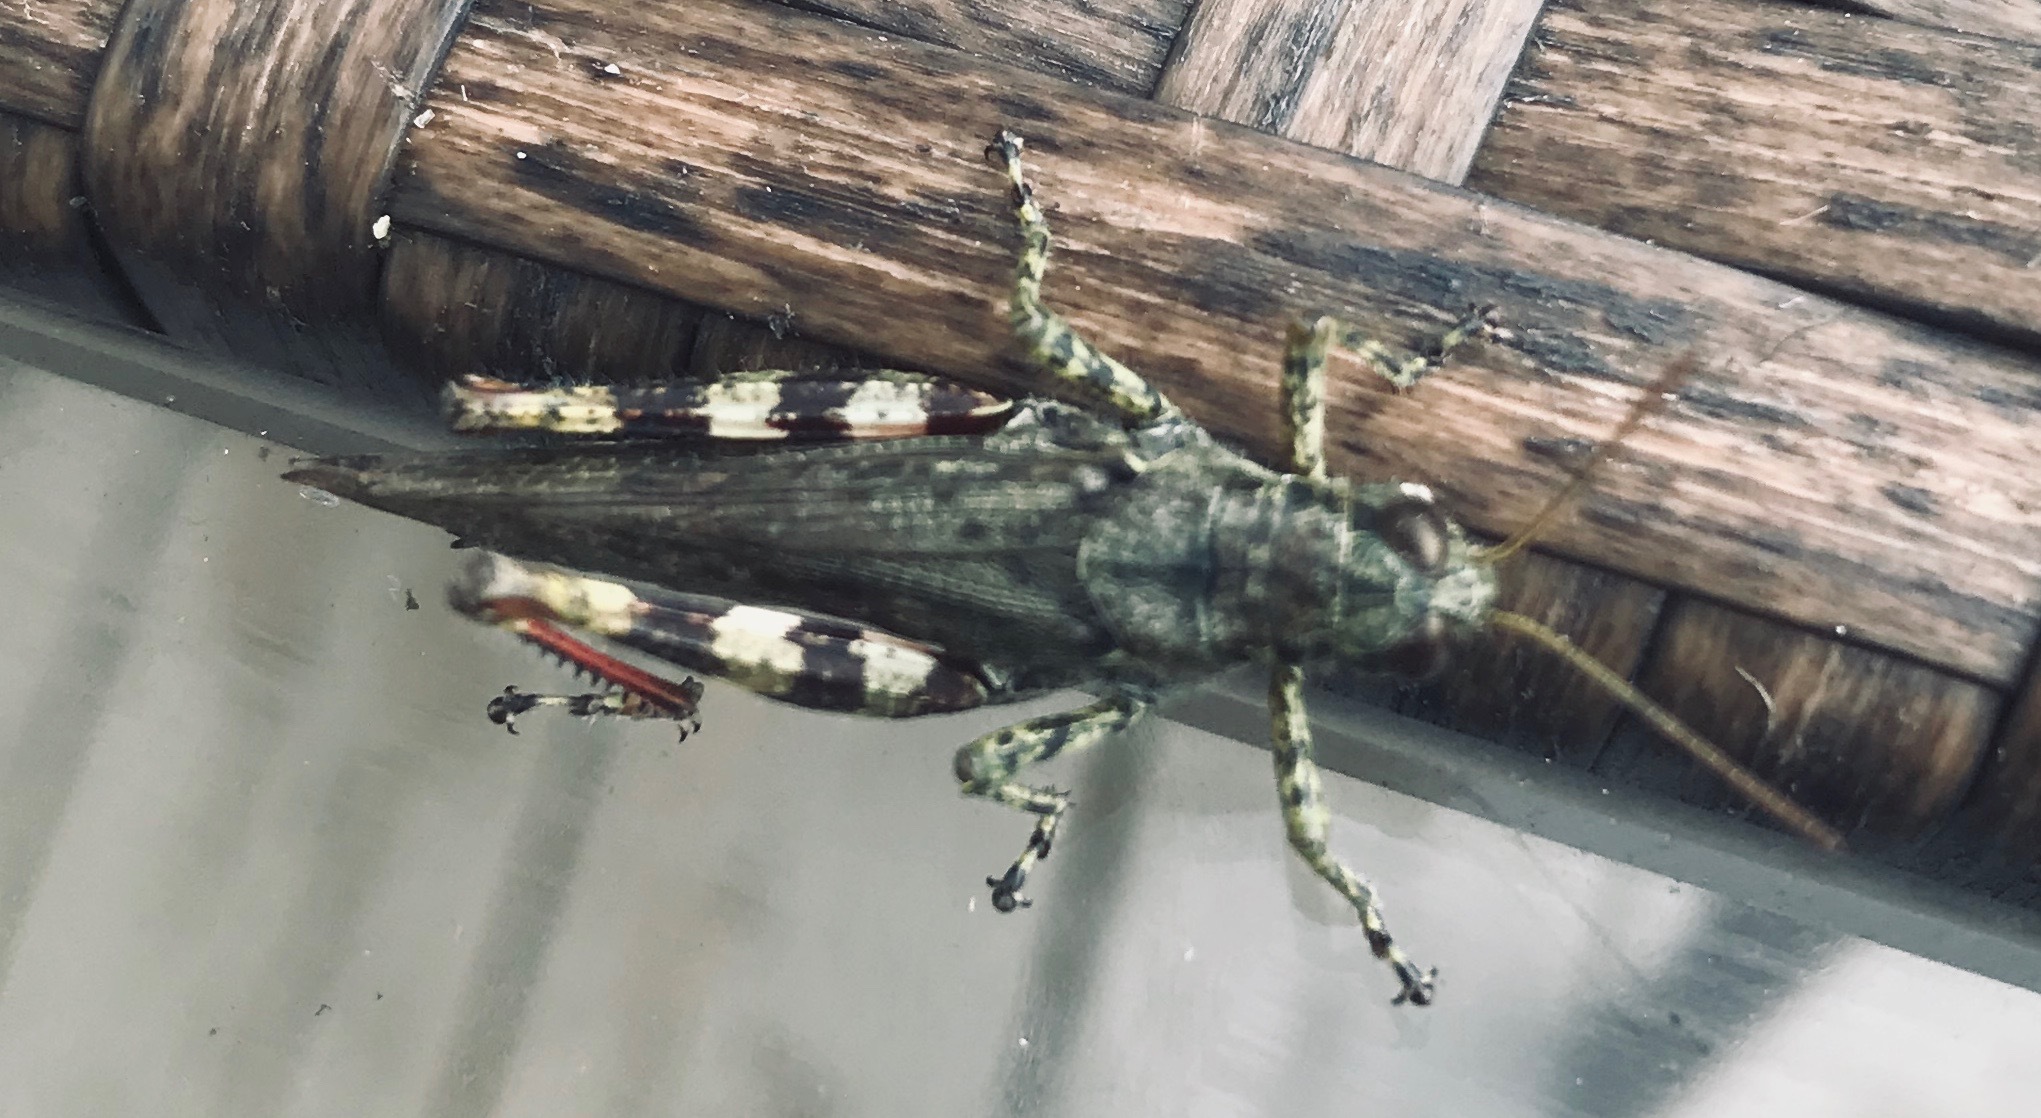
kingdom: Animalia
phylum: Arthropoda
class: Insecta
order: Orthoptera
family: Acrididae
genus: Melanoplus
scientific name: Melanoplus punctulatus
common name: Pine-tree spur-throat grasshopper
